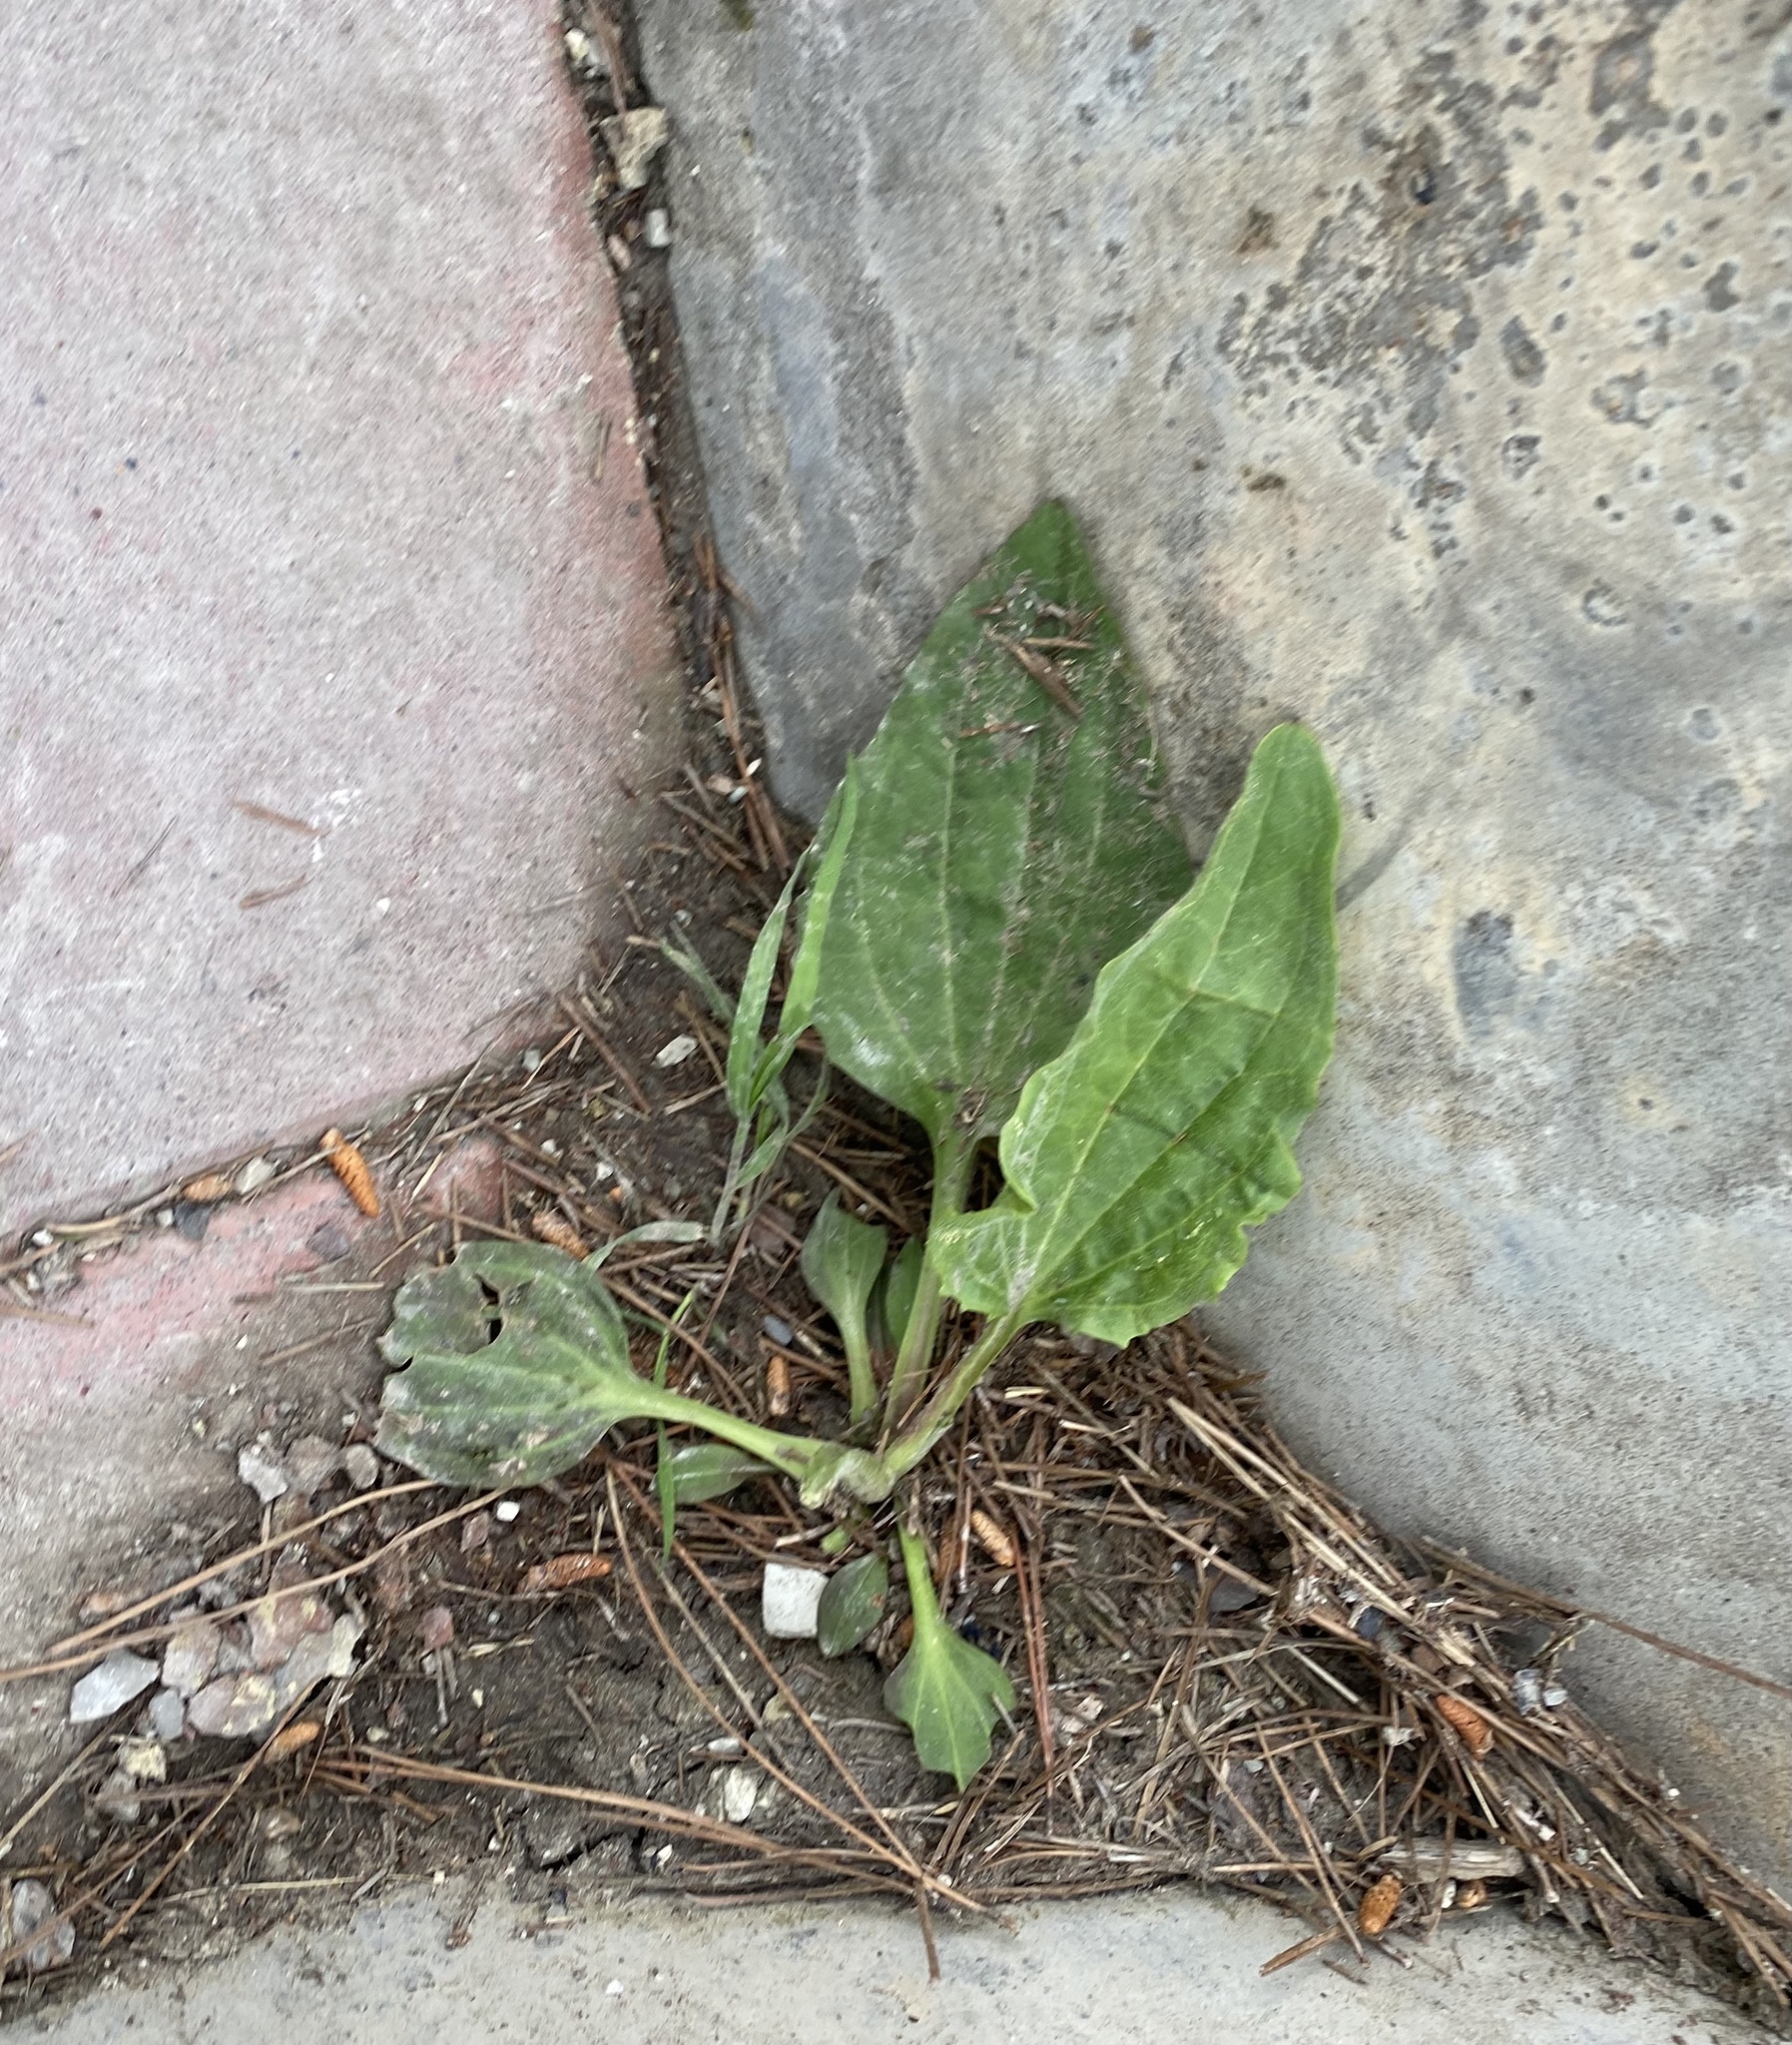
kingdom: Plantae
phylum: Tracheophyta
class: Magnoliopsida
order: Lamiales
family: Plantaginaceae
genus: Plantago
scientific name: Plantago major
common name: Common plantain
